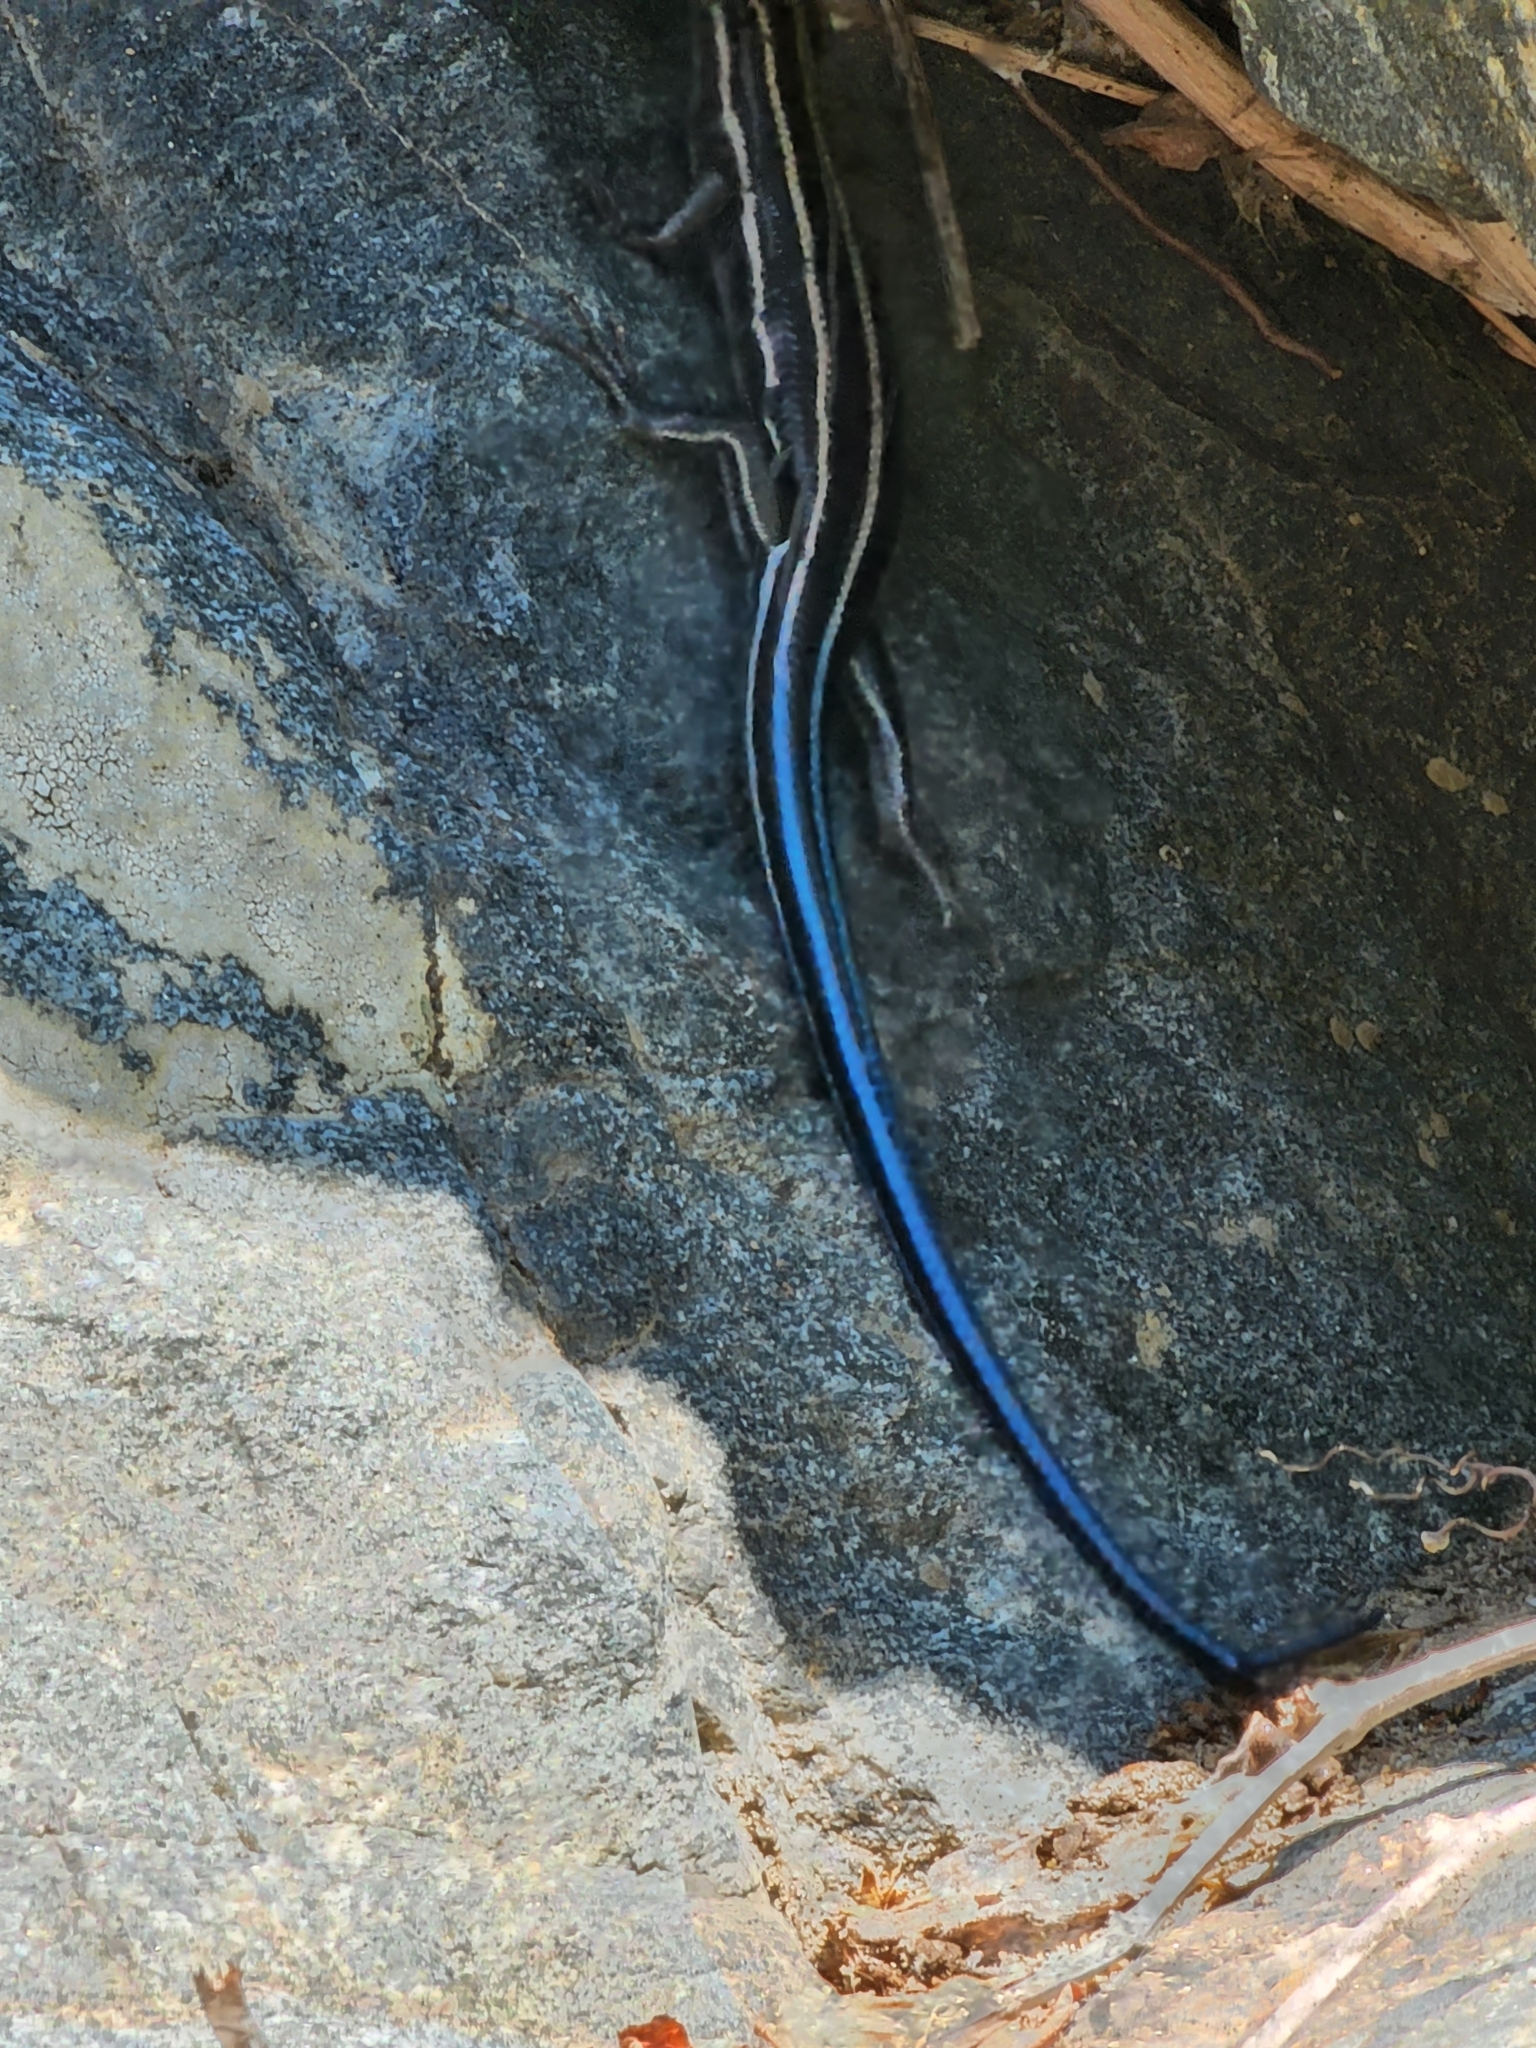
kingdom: Animalia
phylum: Chordata
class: Squamata
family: Scincidae
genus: Plestiodon
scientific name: Plestiodon fasciatus
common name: Five-lined skink
